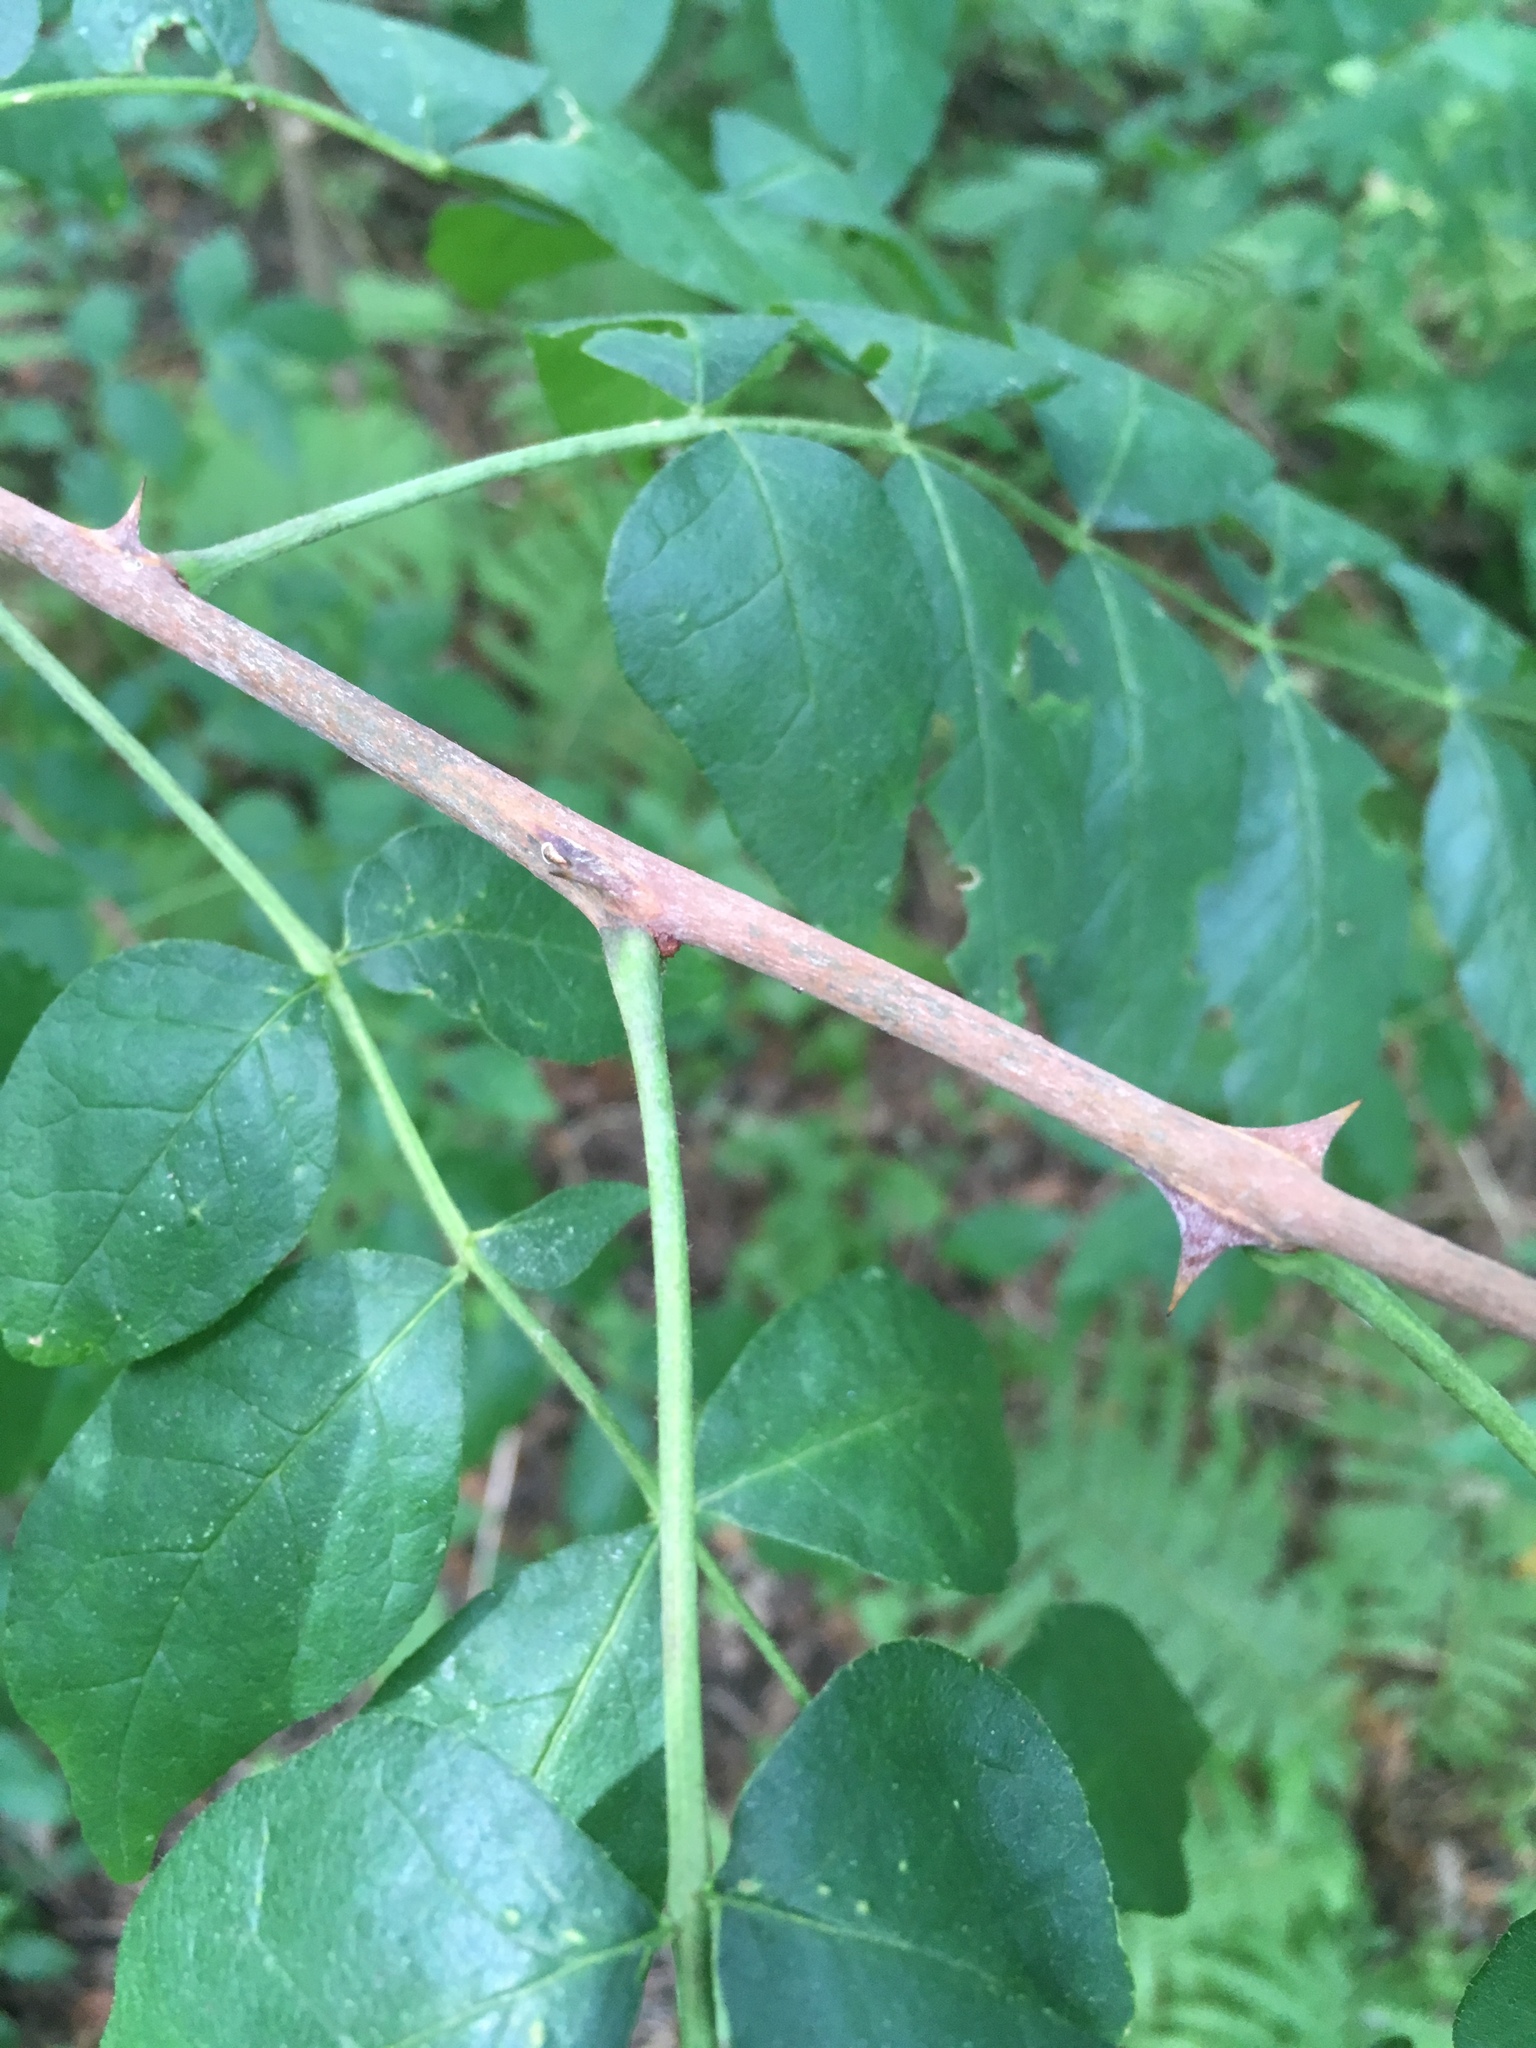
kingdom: Plantae
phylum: Tracheophyta
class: Magnoliopsida
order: Sapindales
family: Rutaceae
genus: Zanthoxylum
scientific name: Zanthoxylum americanum
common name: Northern prickly-ash
